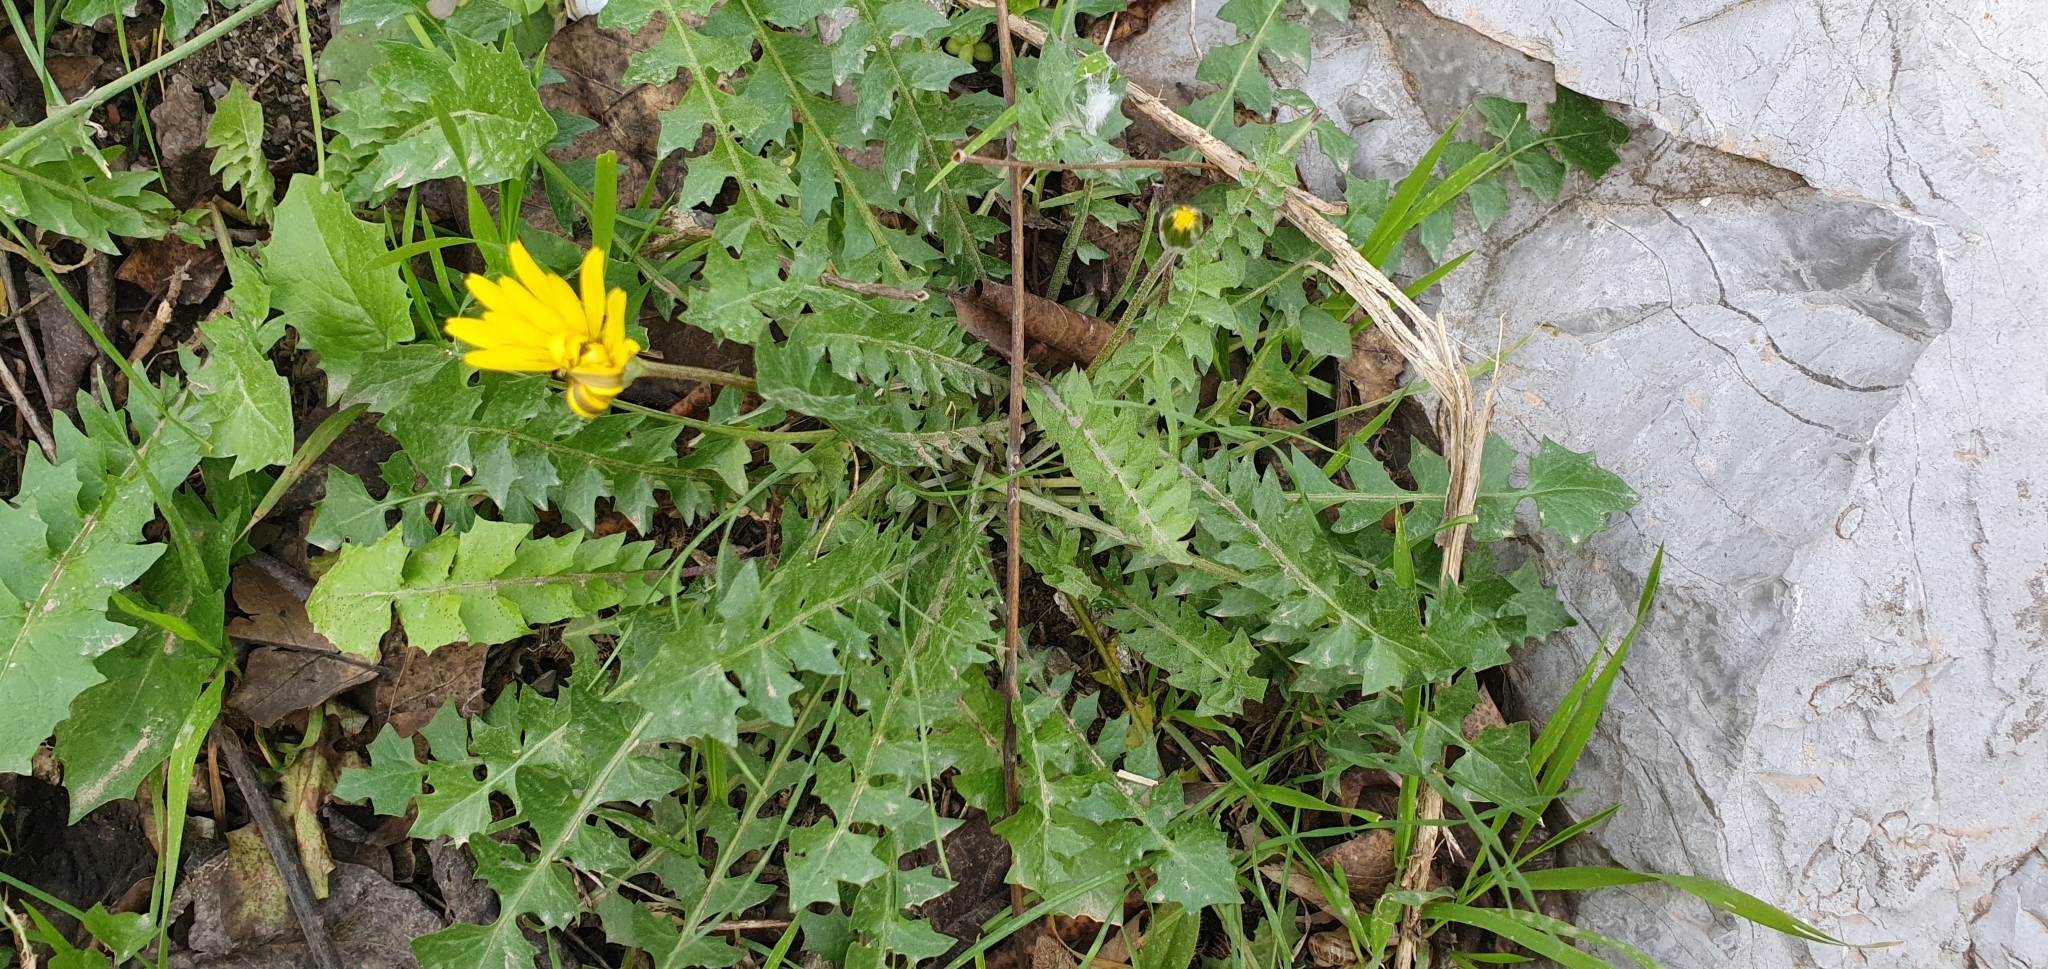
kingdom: Plantae
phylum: Tracheophyta
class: Magnoliopsida
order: Asterales
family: Asteraceae
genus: Hyoseris
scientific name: Hyoseris radiata
